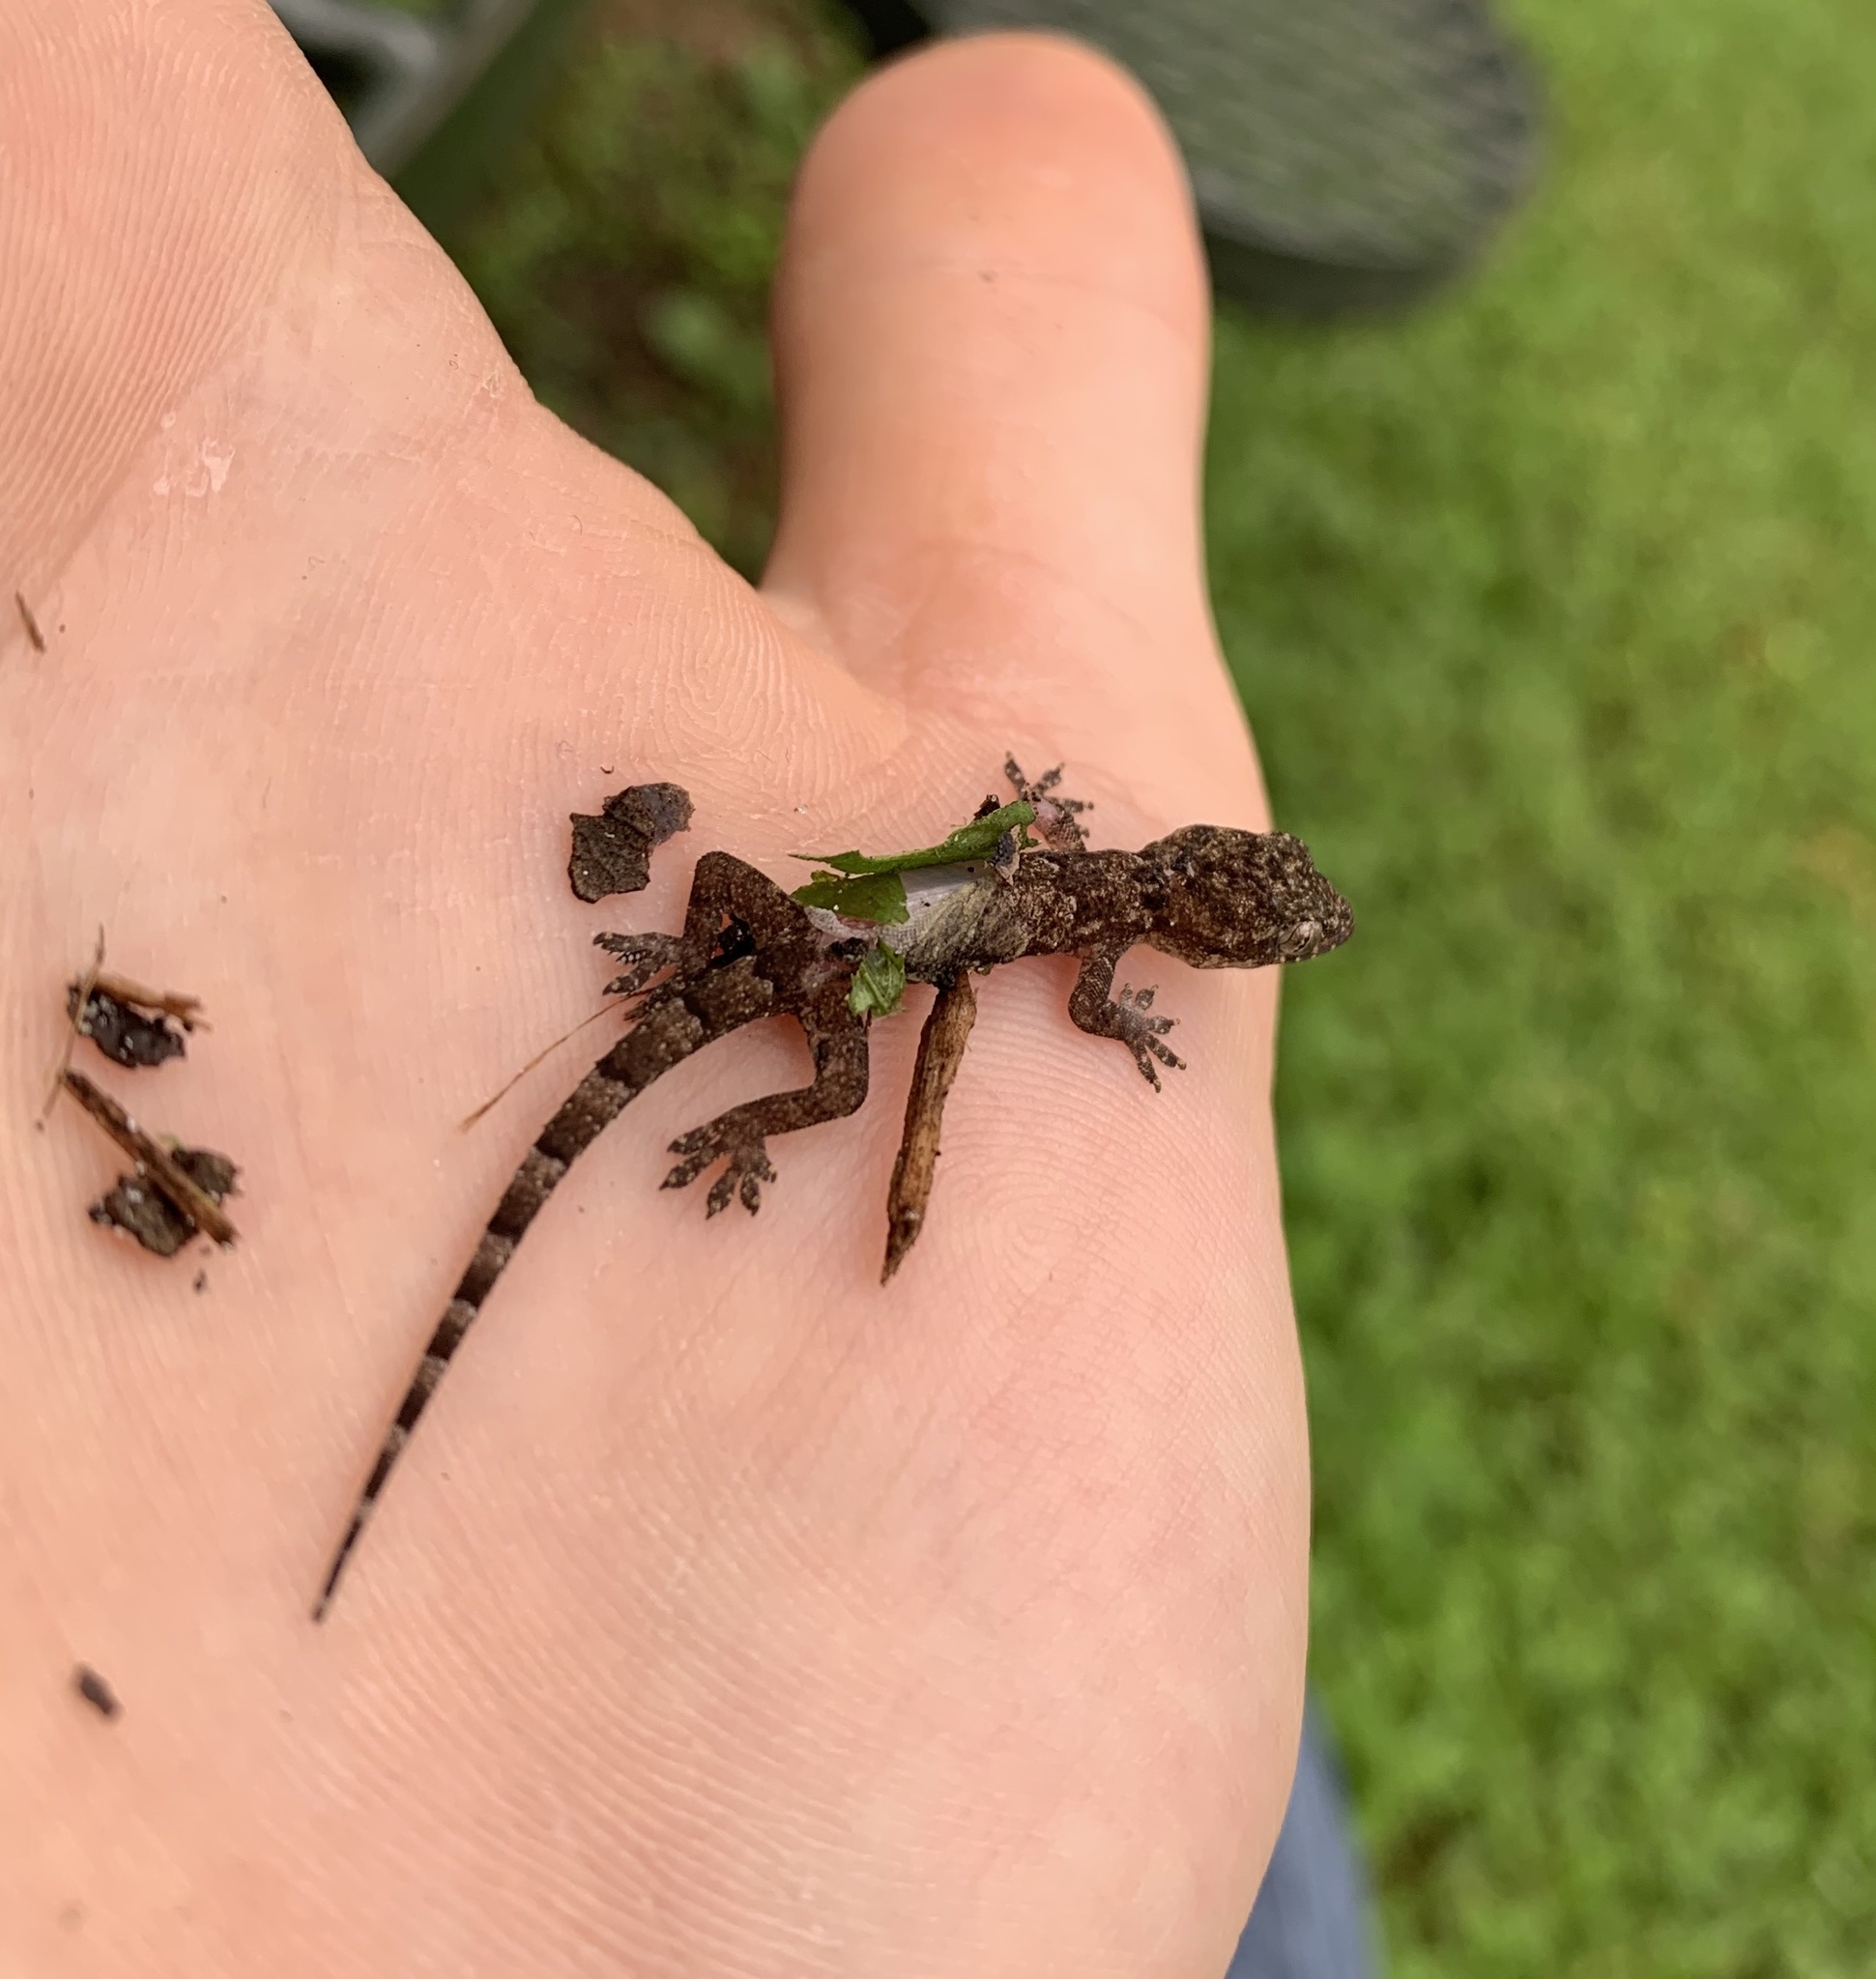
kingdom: Animalia
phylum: Chordata
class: Squamata
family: Gekkonidae
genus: Hemidactylus
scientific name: Hemidactylus mabouia
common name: House gecko
